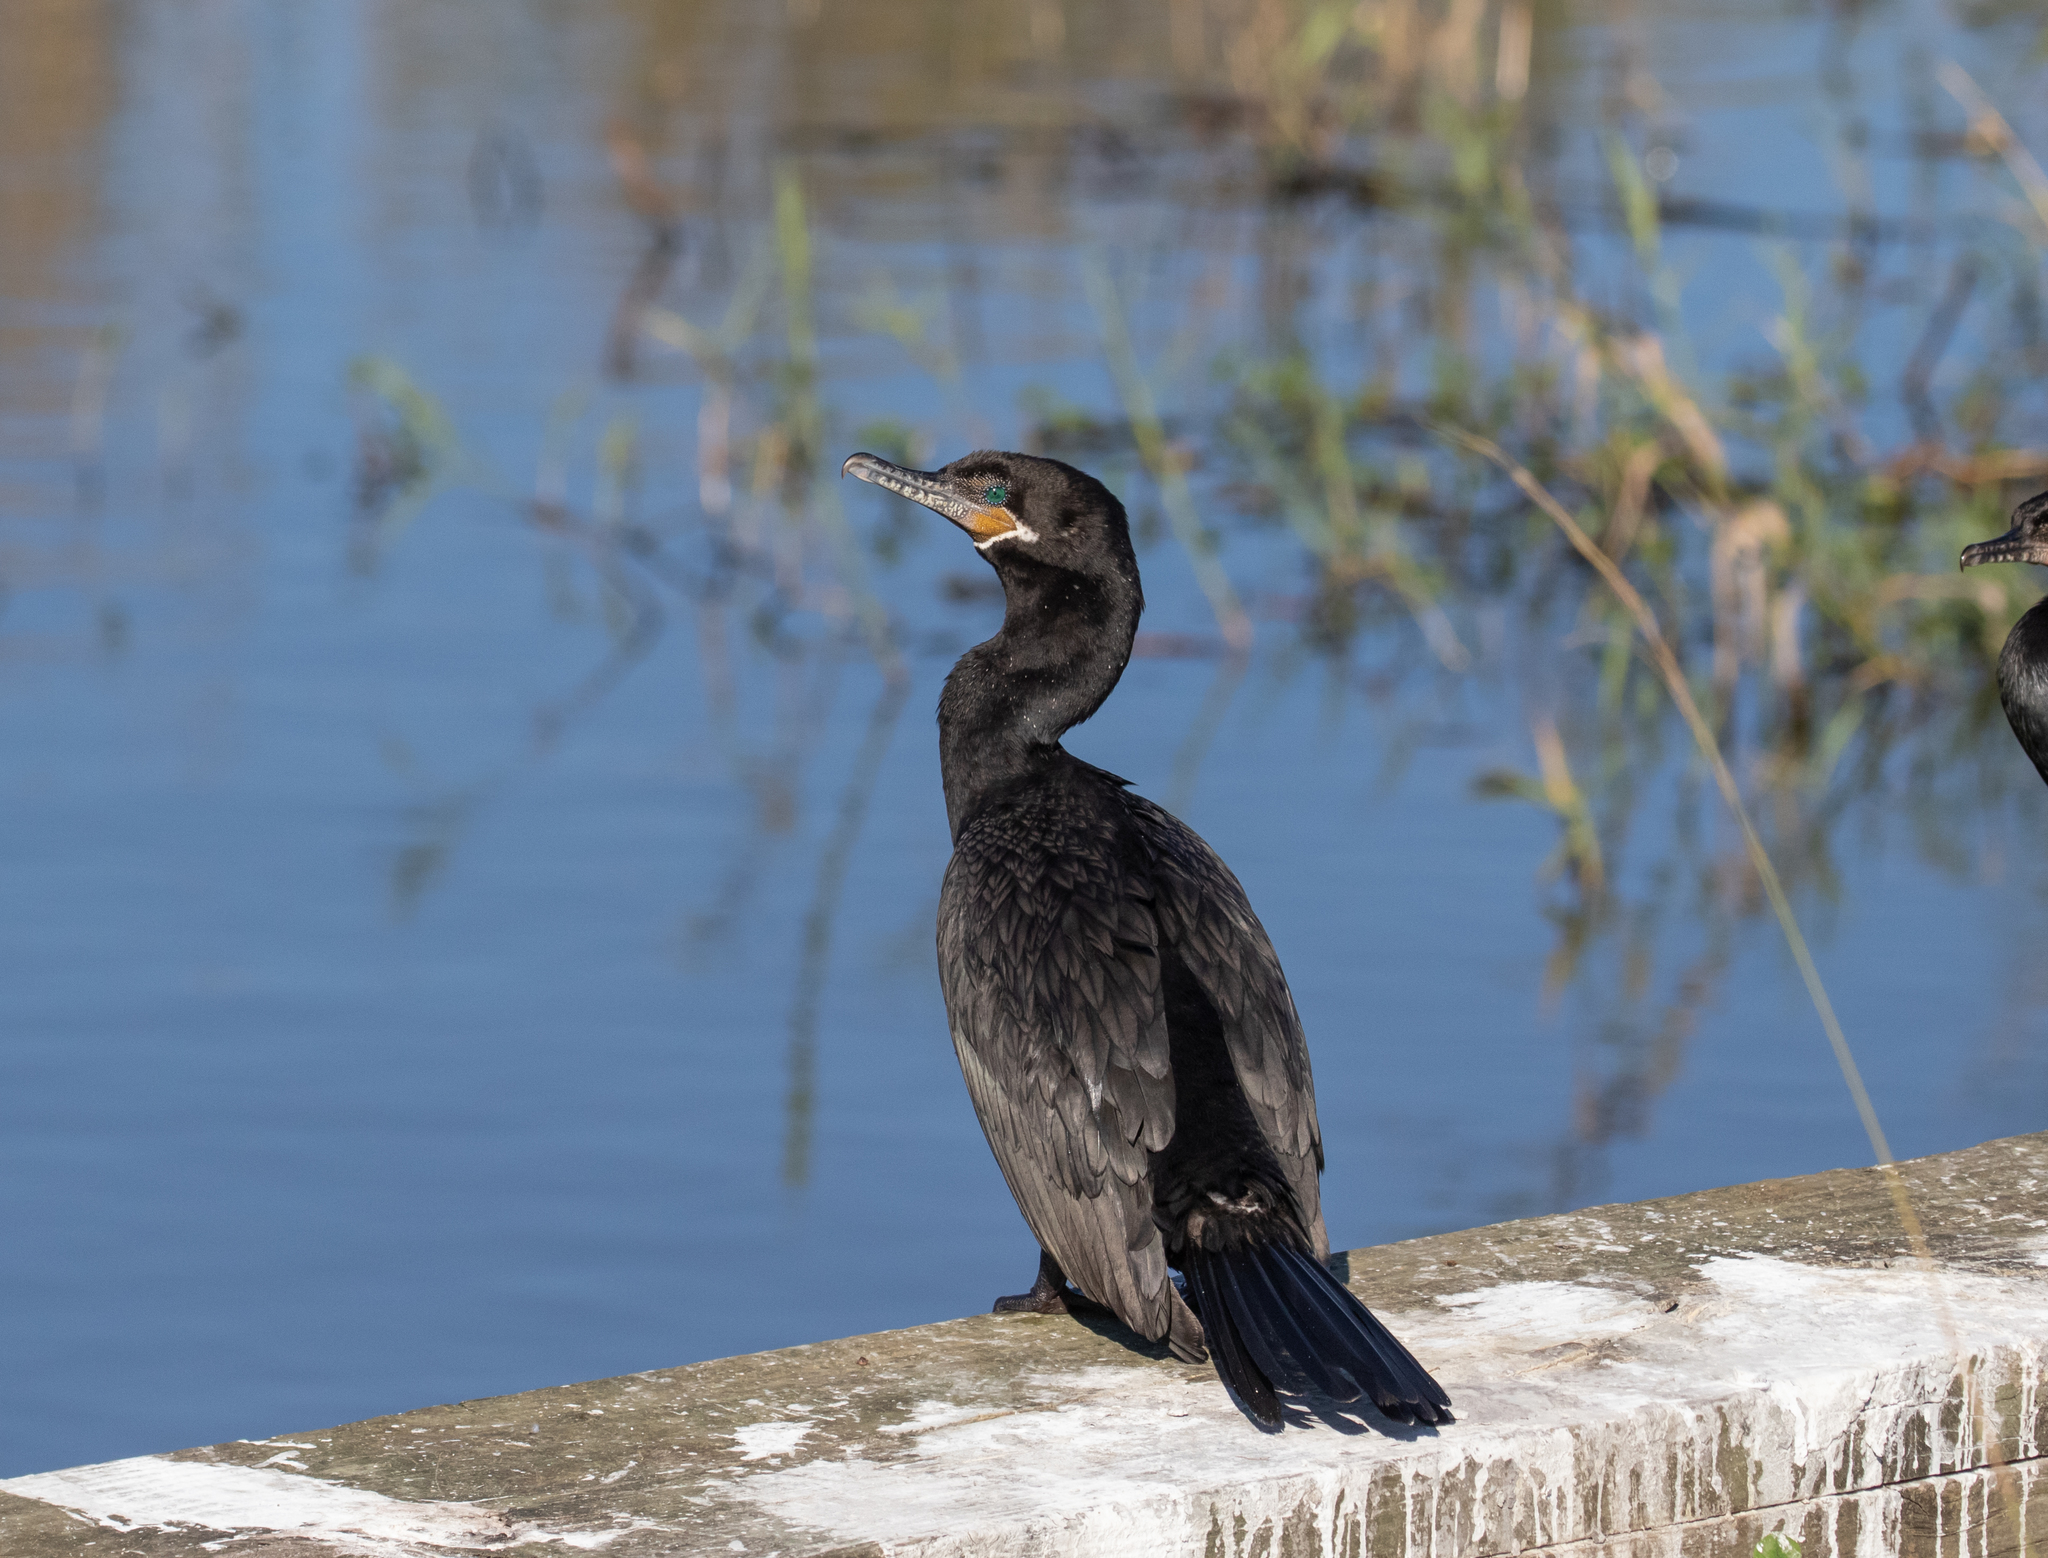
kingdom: Animalia
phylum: Chordata
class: Aves
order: Suliformes
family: Phalacrocoracidae
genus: Phalacrocorax
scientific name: Phalacrocorax brasilianus
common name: Neotropic cormorant
